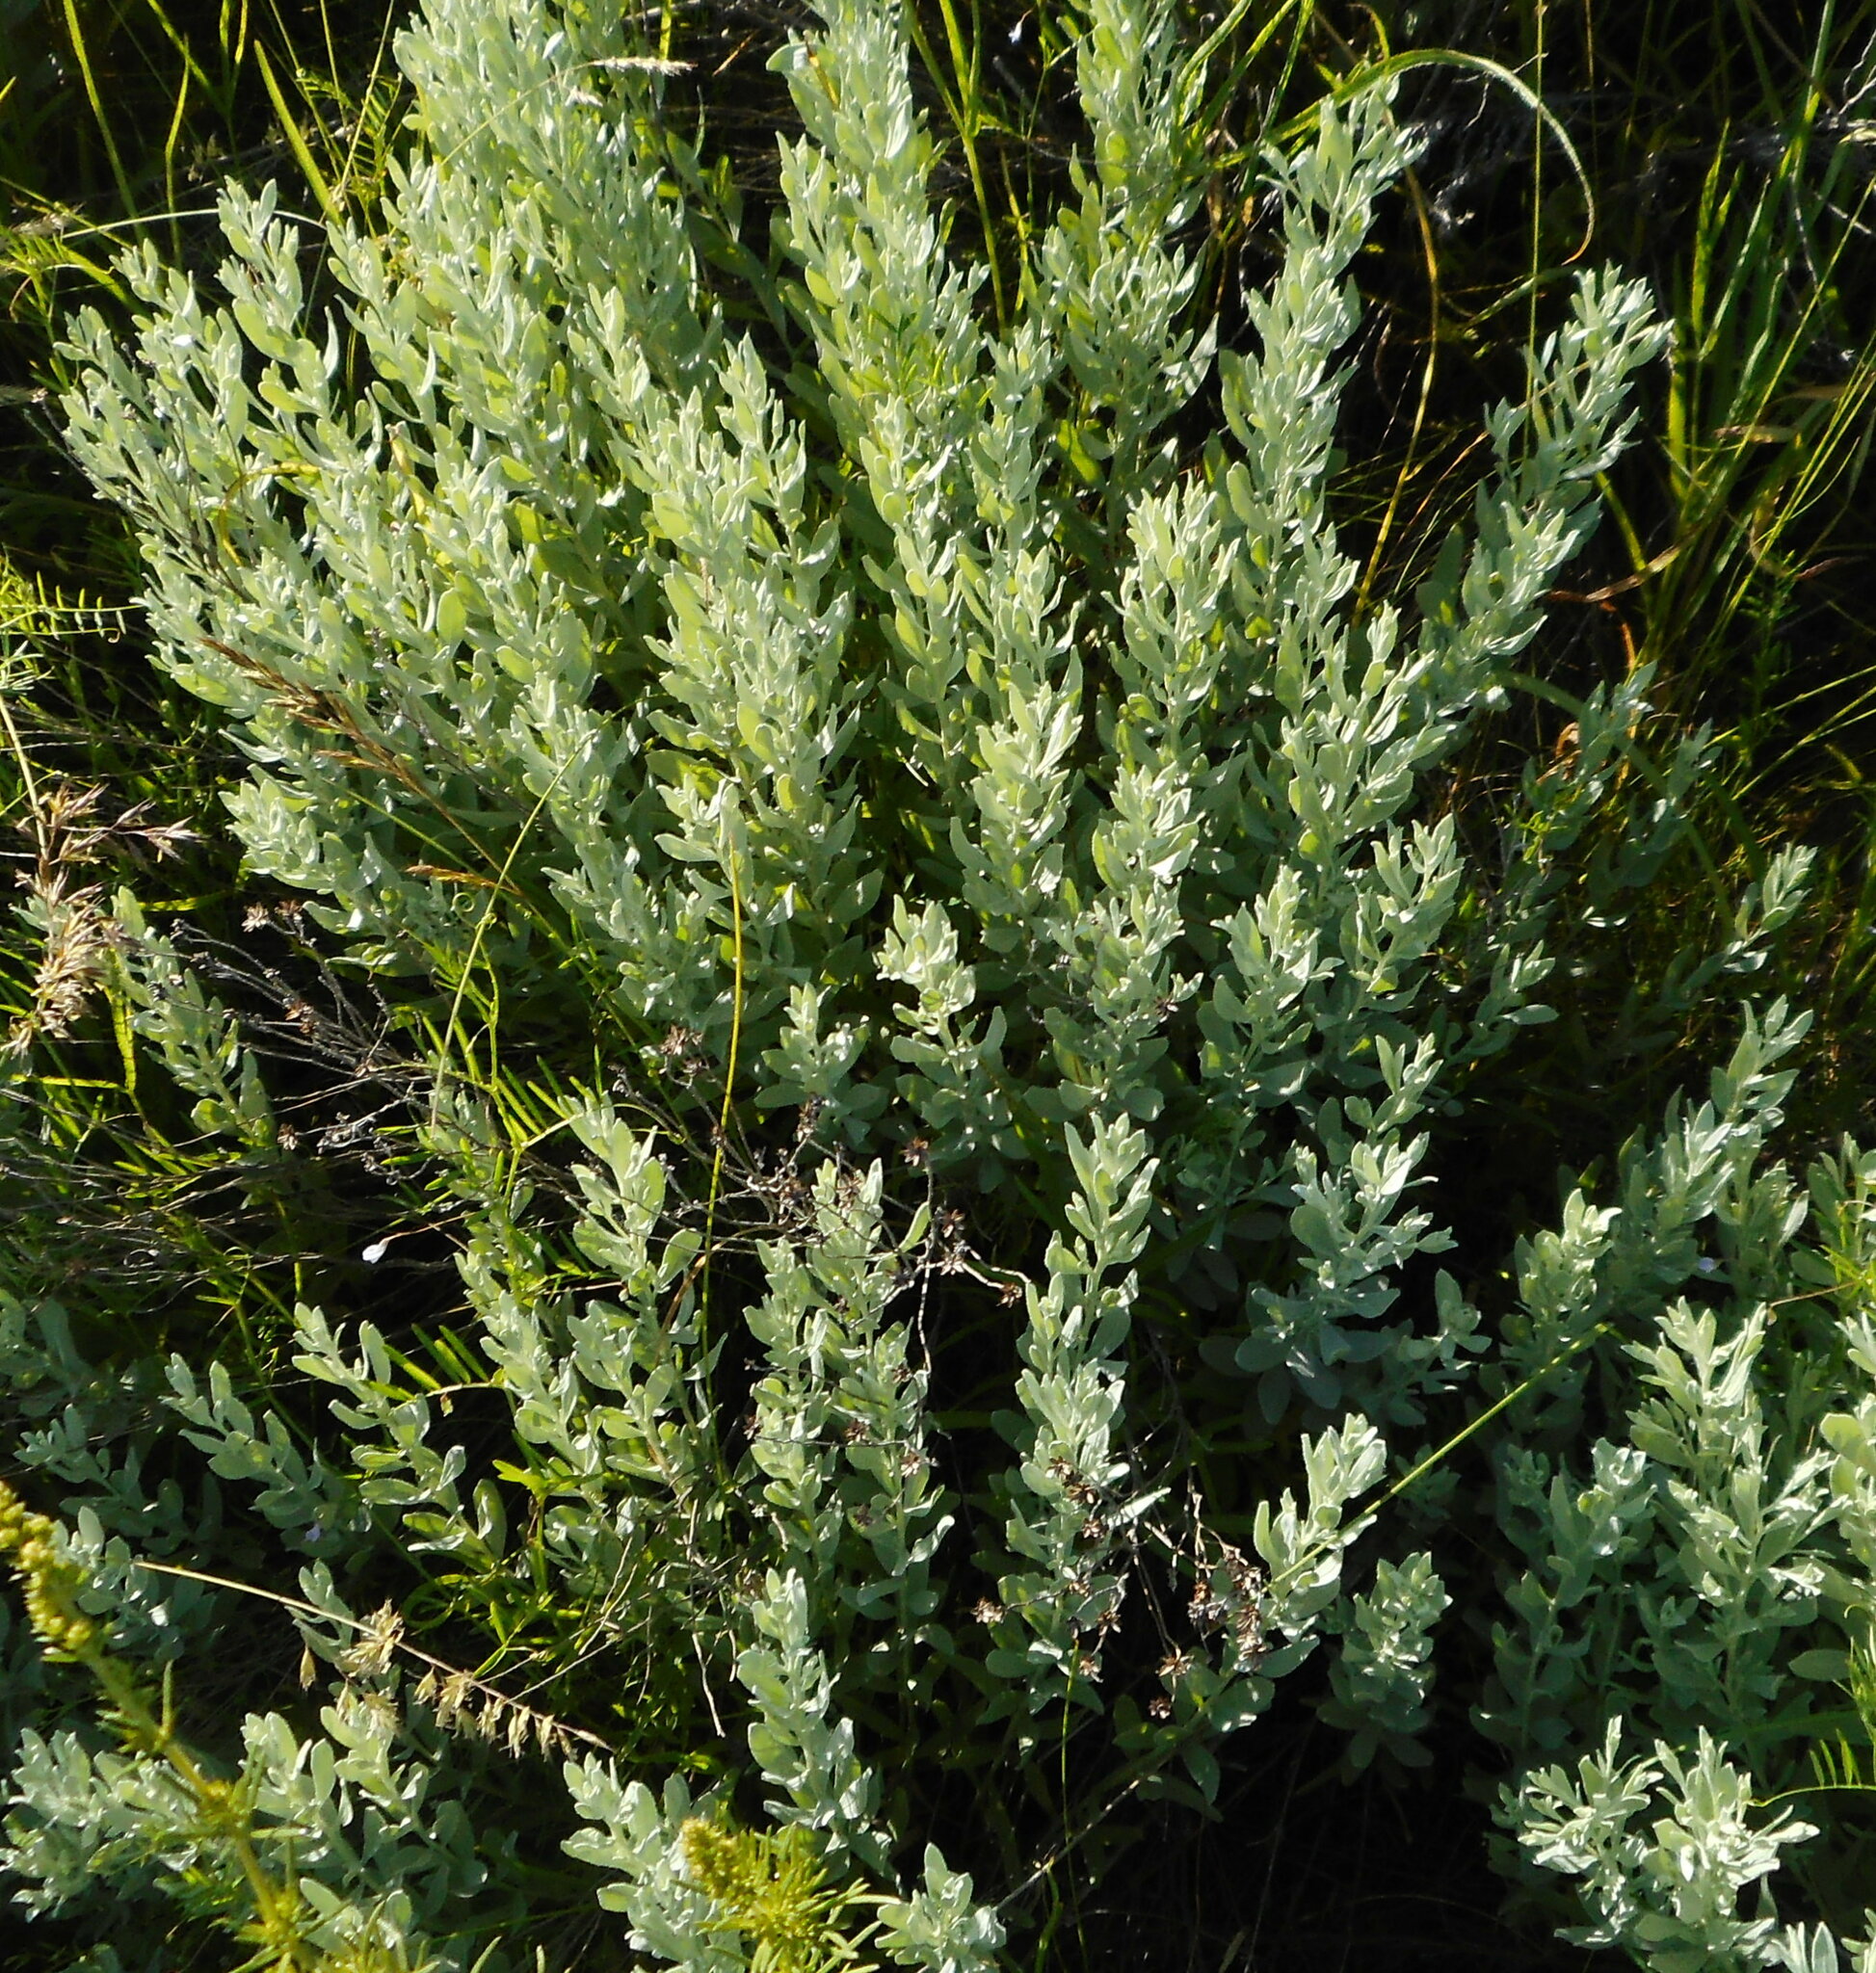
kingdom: Plantae
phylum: Tracheophyta
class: Magnoliopsida
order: Asterales
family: Asteraceae
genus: Galatella
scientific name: Galatella villosa
